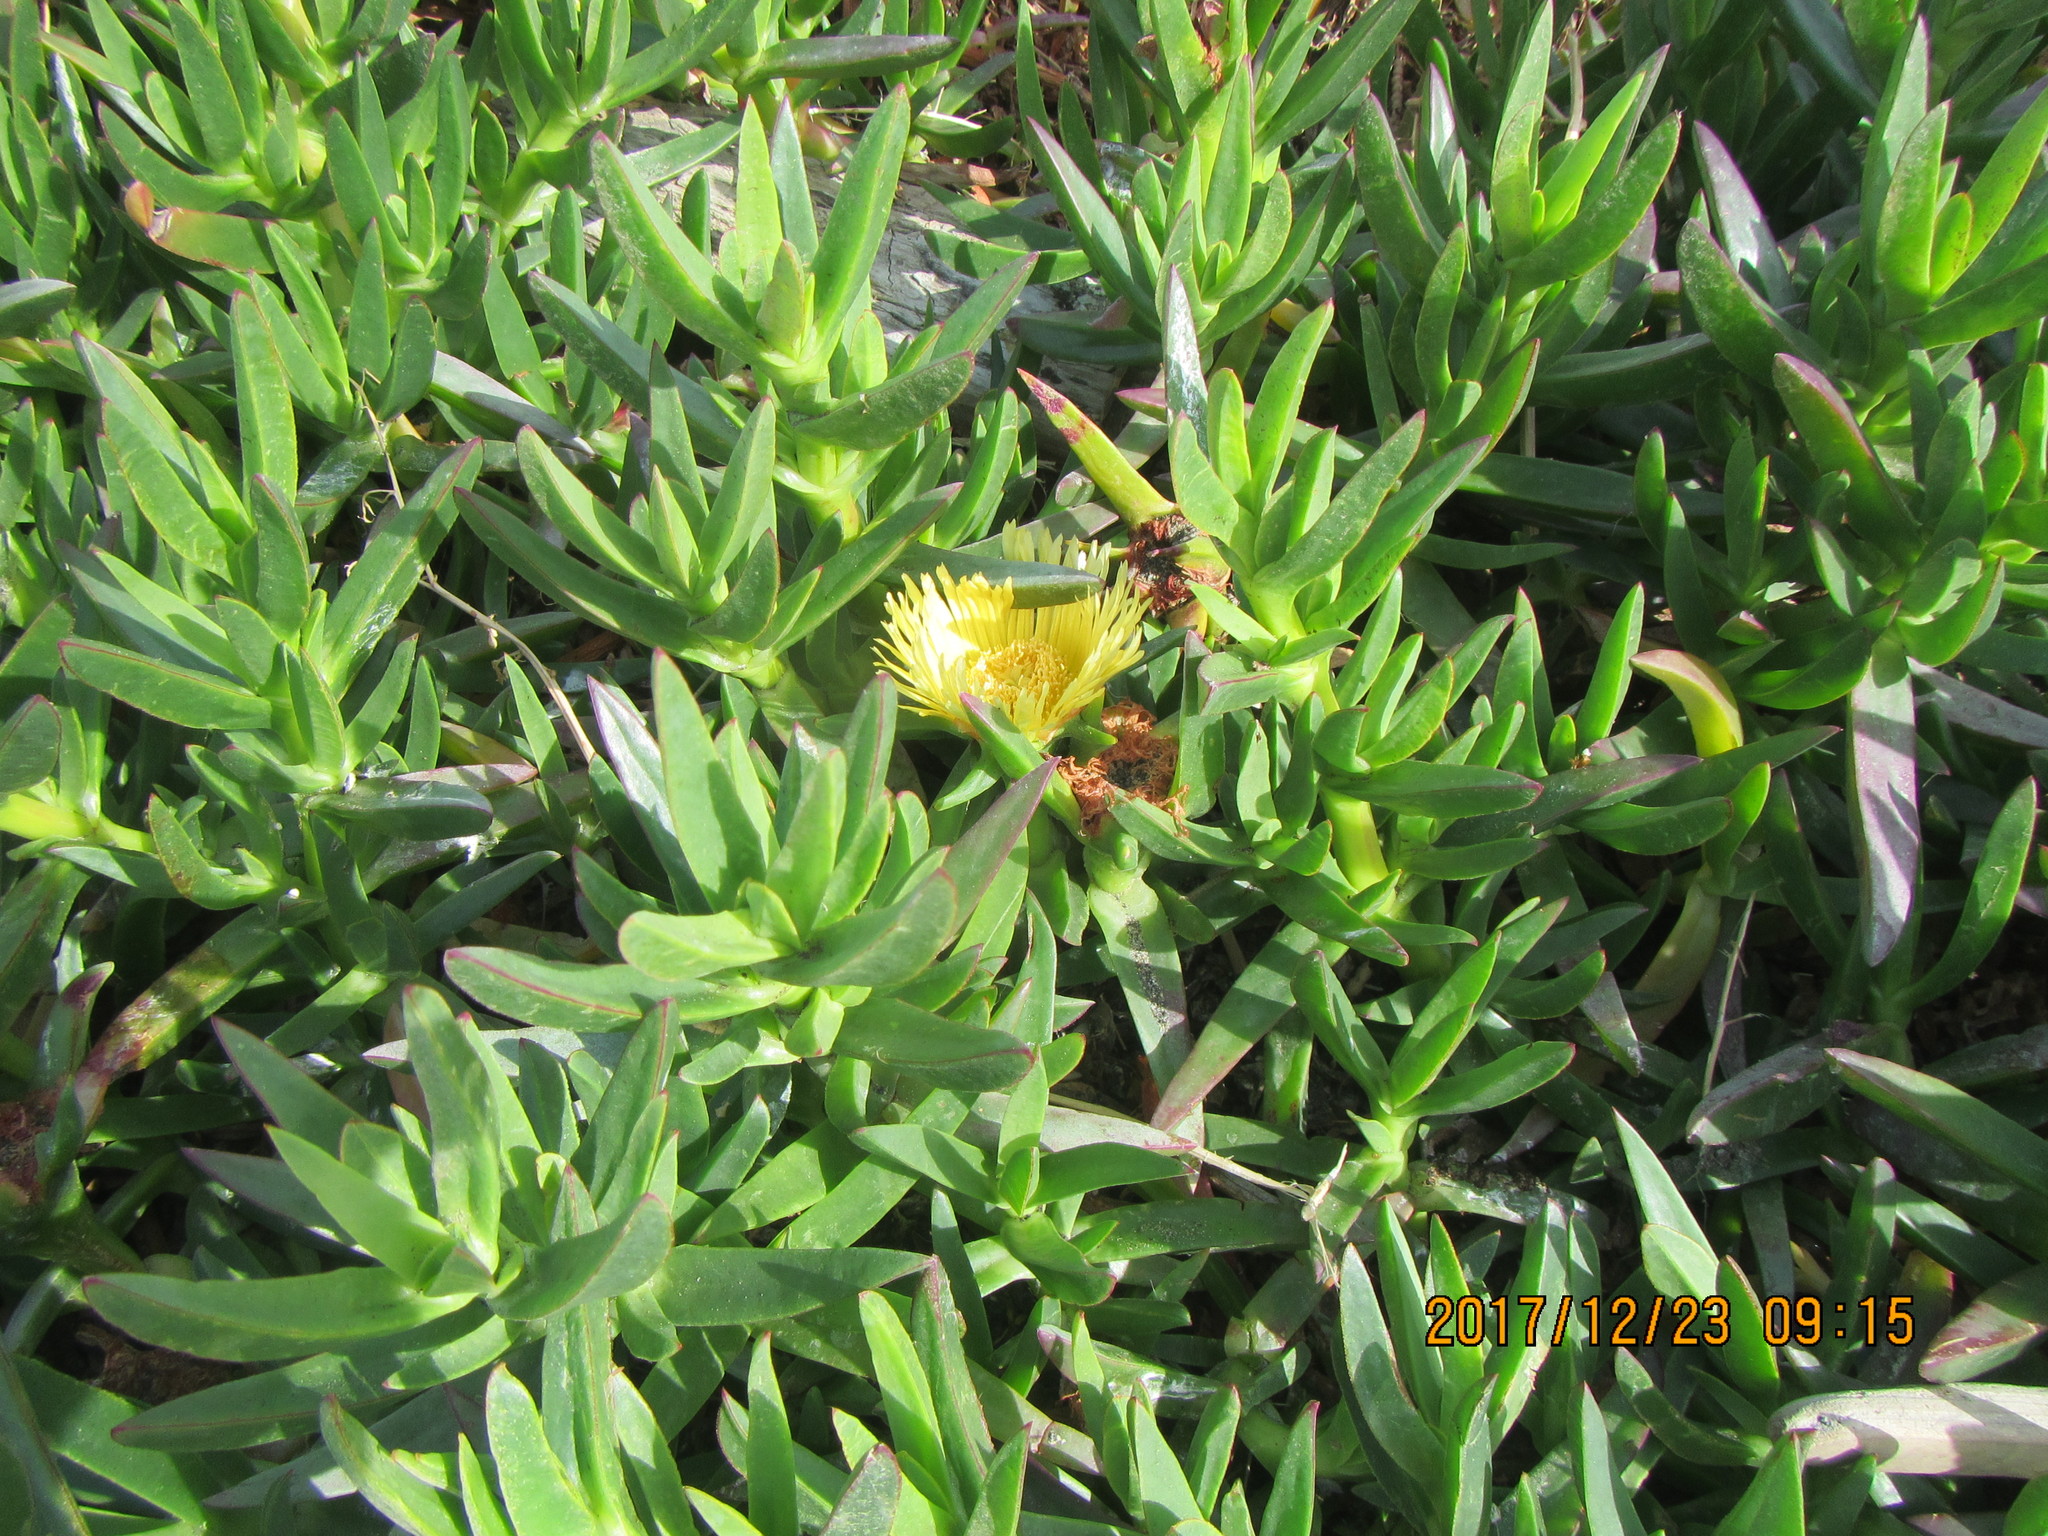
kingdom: Plantae
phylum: Tracheophyta
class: Magnoliopsida
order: Caryophyllales
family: Aizoaceae
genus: Carpobrotus
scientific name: Carpobrotus edulis
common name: Hottentot-fig
